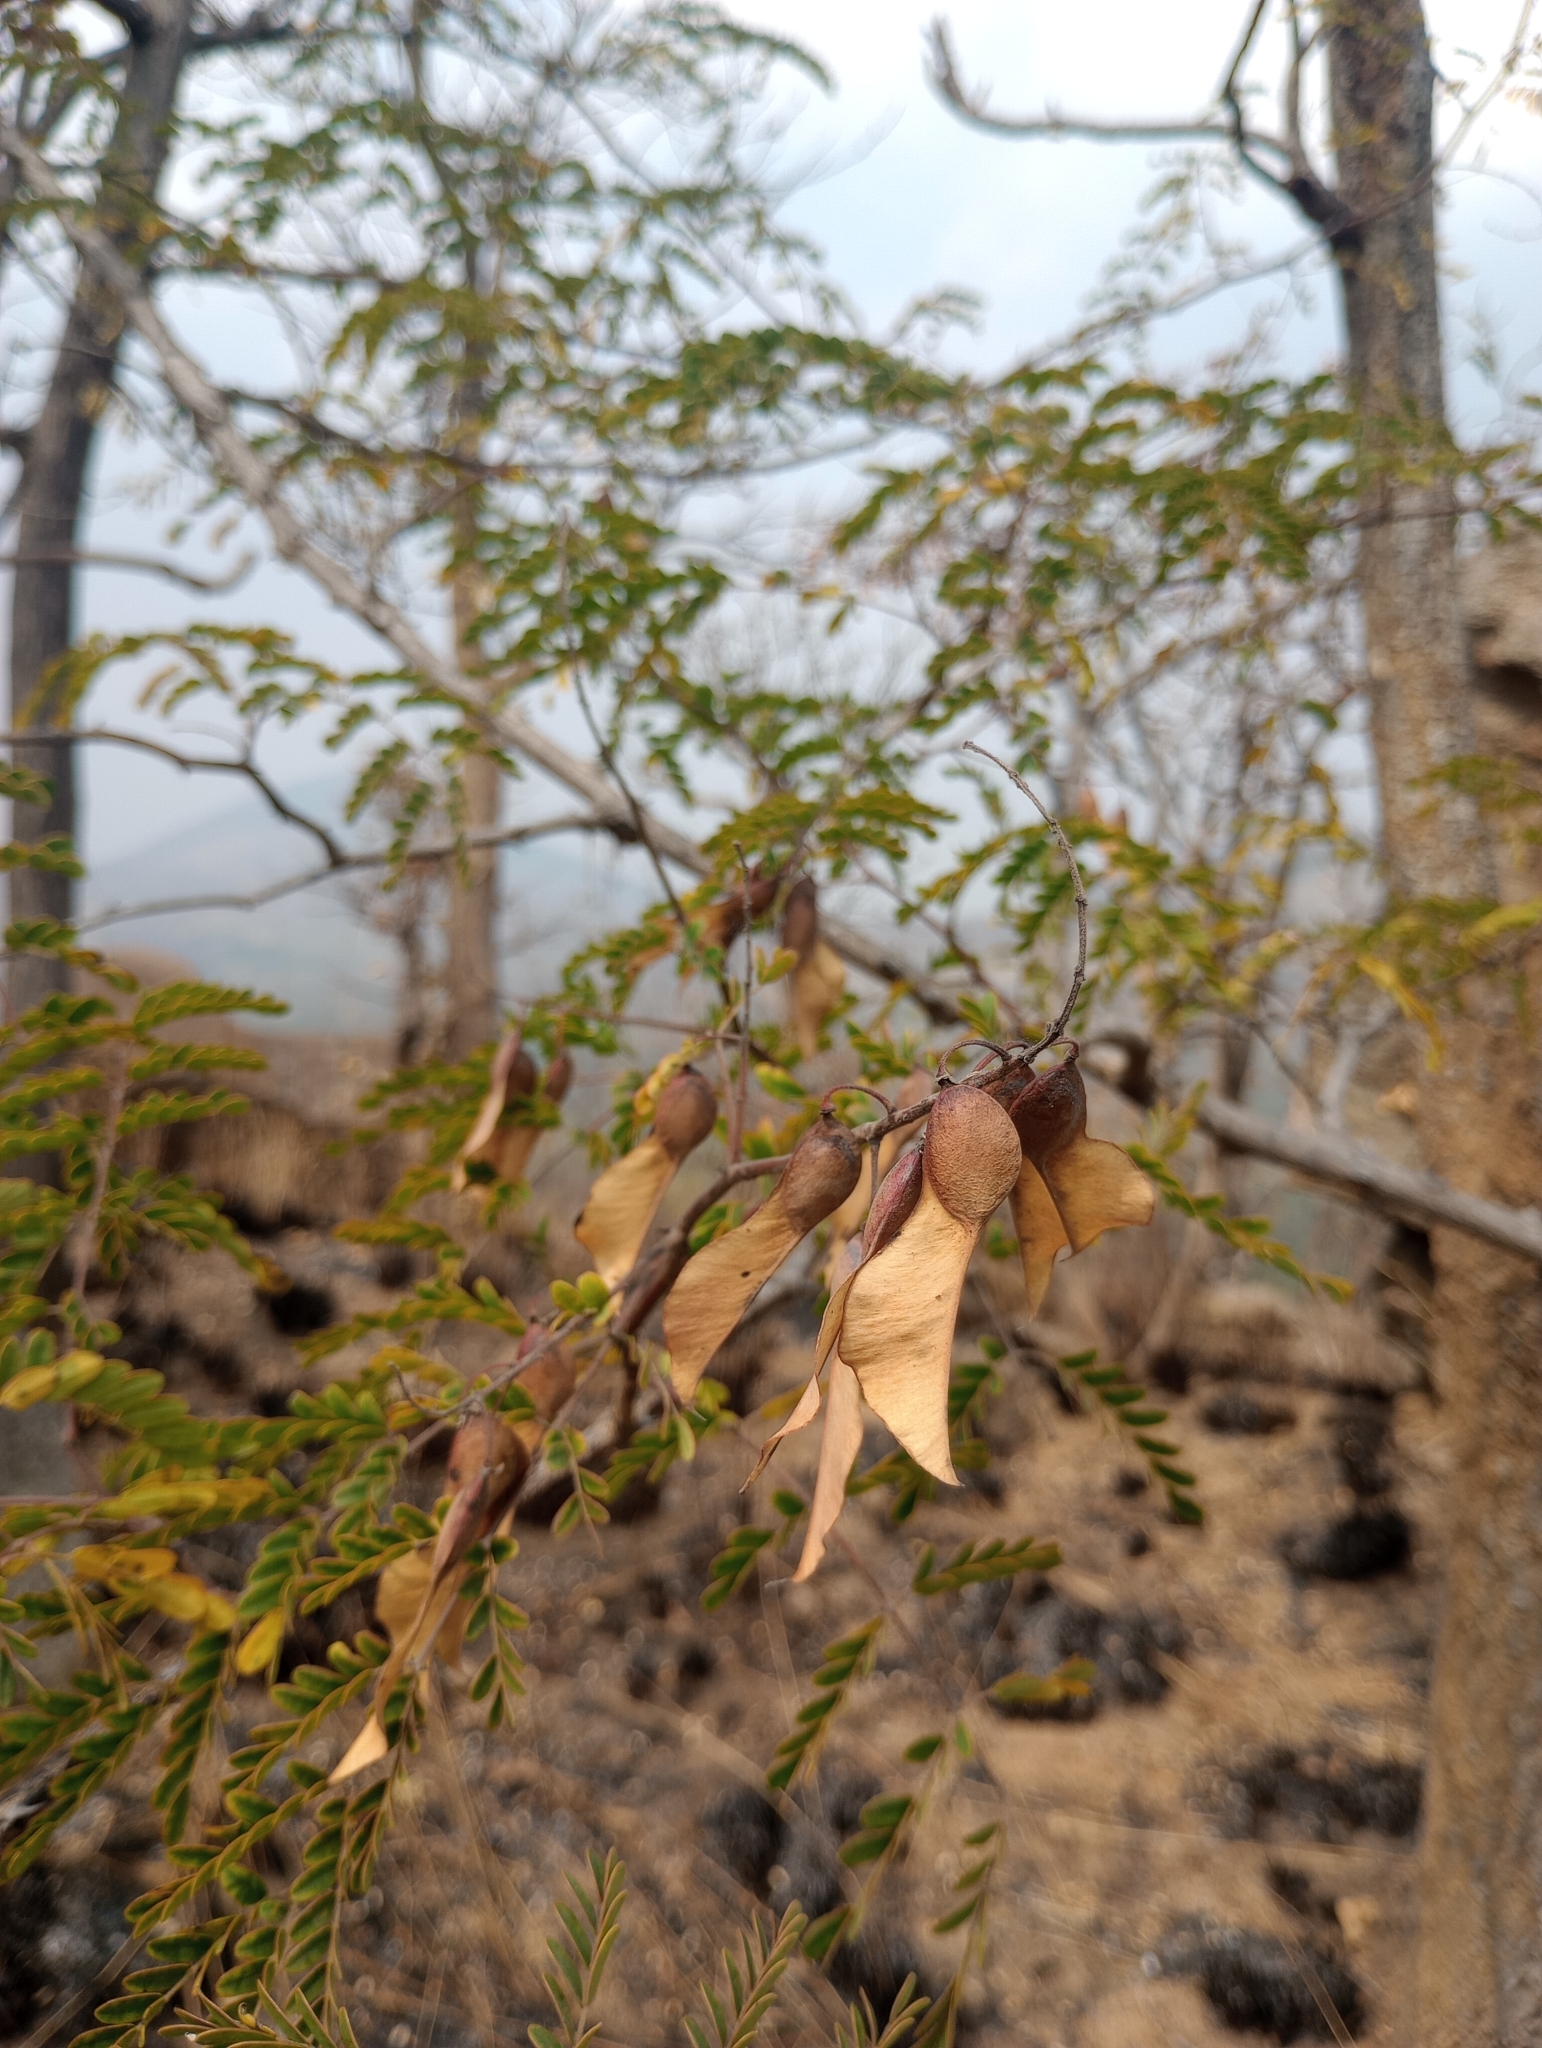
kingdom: Plantae
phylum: Tracheophyta
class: Magnoliopsida
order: Malvales
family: Malvaceae
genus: Sterculia
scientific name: Sterculia urens
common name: Indian-tragacanth
